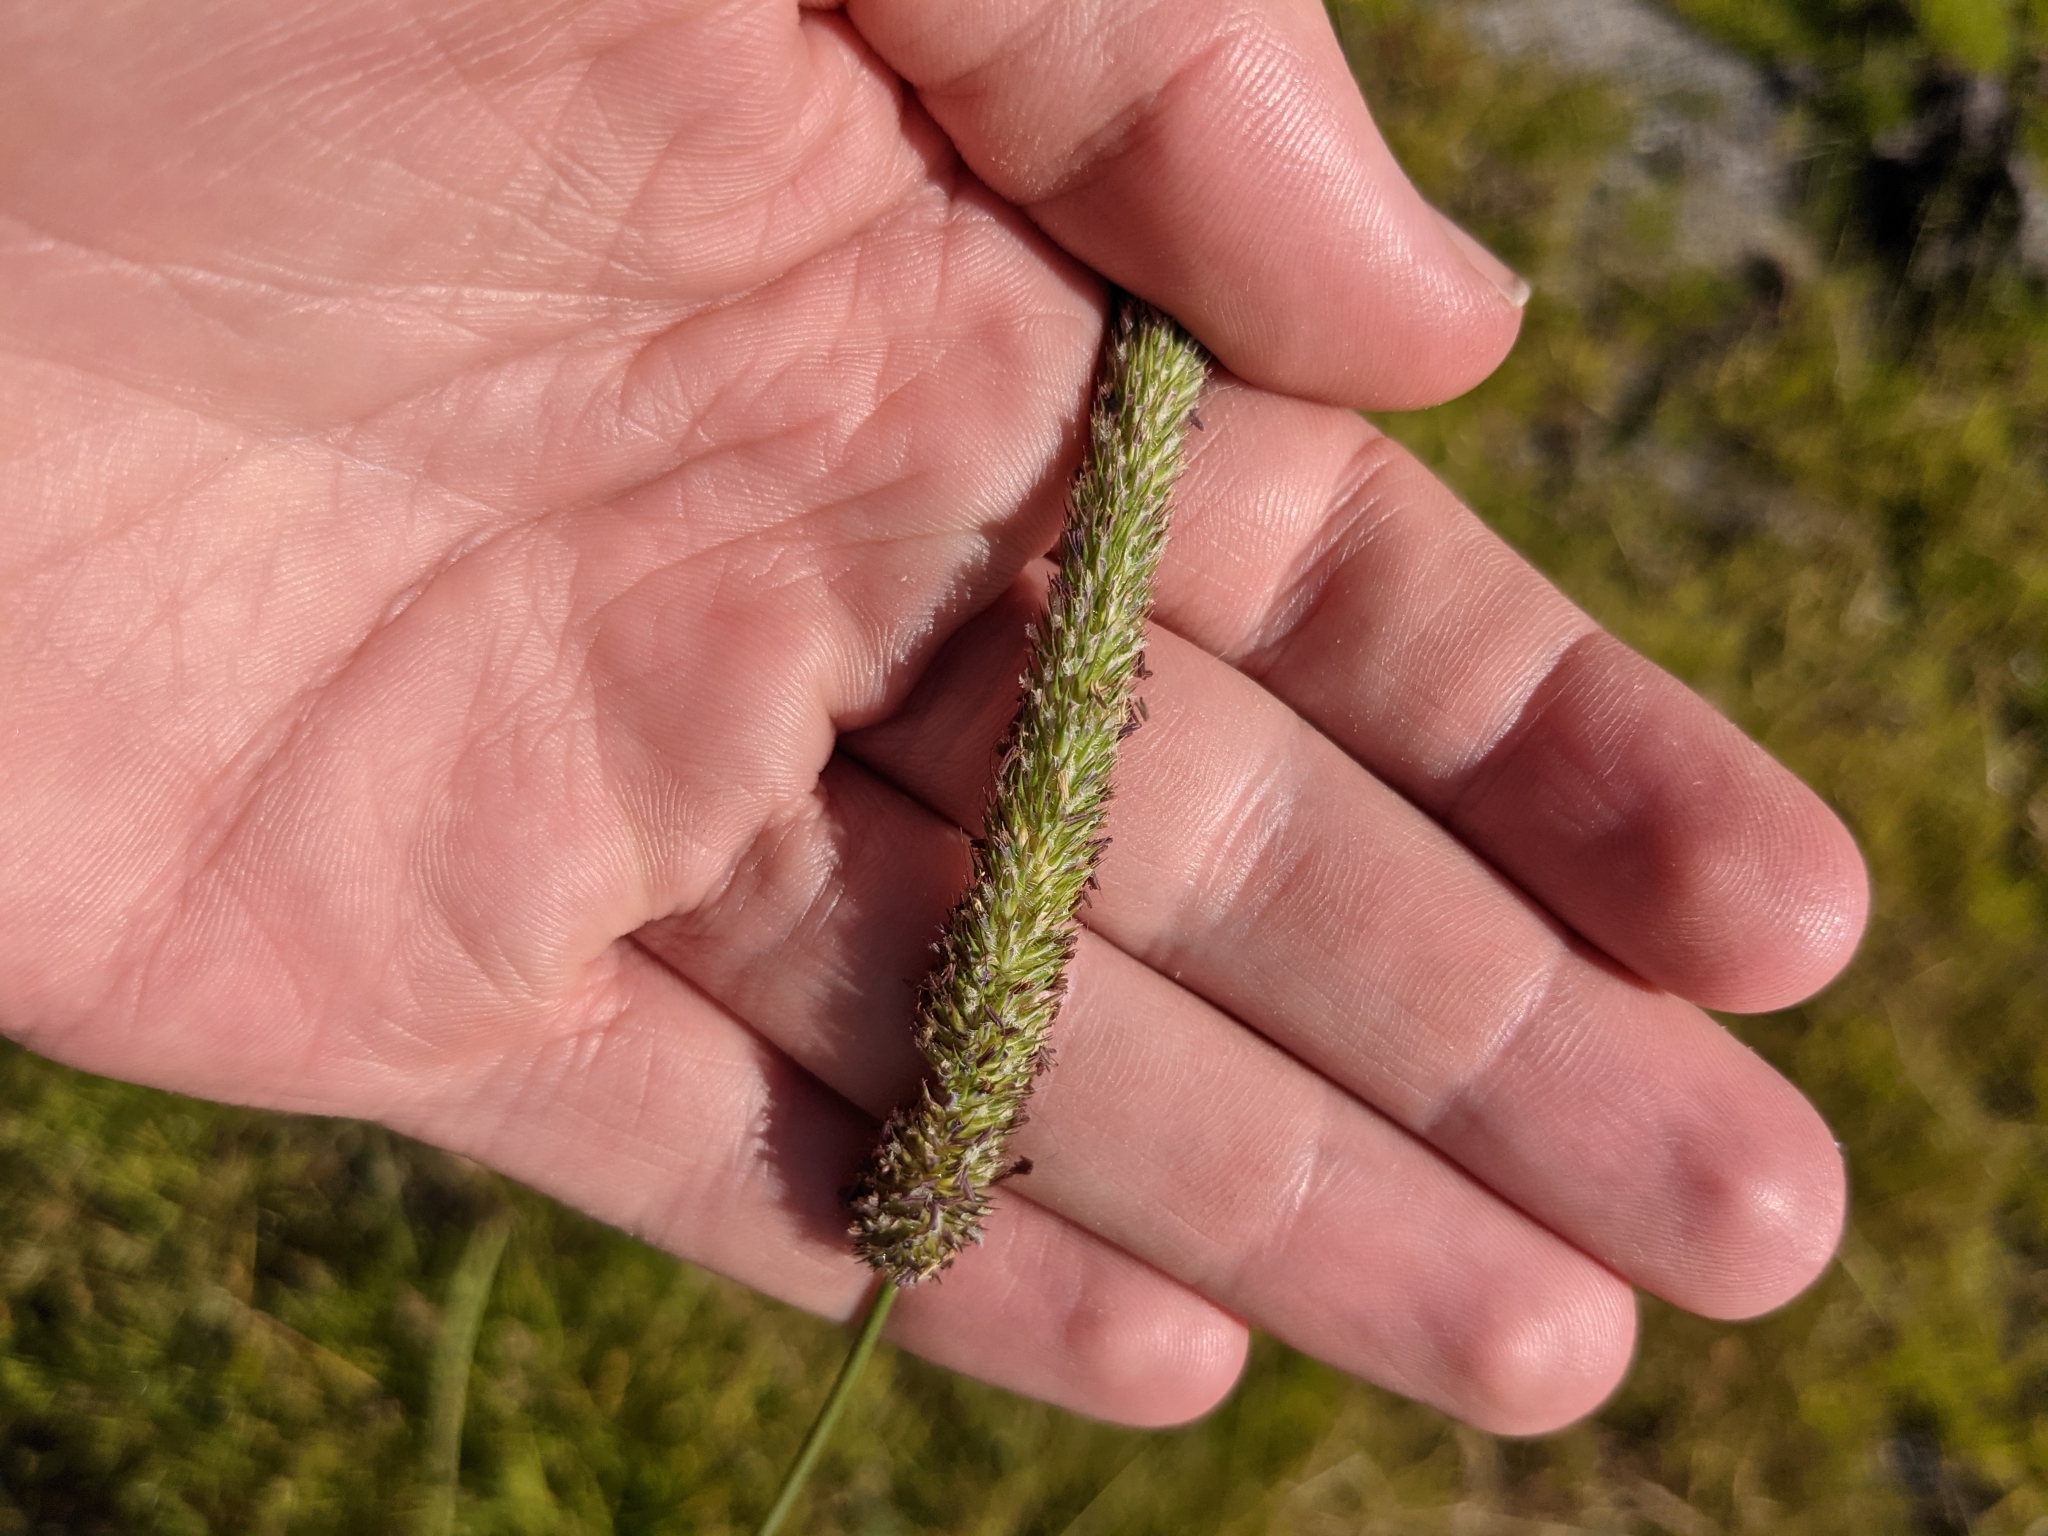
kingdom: Plantae
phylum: Tracheophyta
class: Liliopsida
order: Poales
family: Poaceae
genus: Phleum
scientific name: Phleum pratense
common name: Timothy grass
